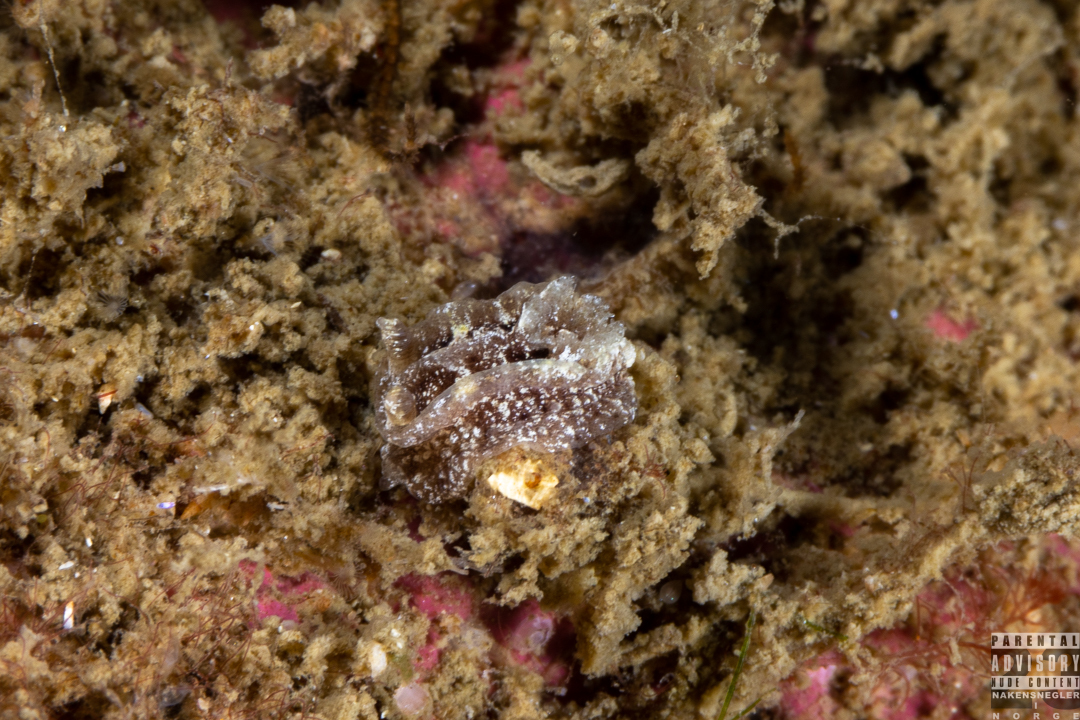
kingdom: Animalia
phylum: Mollusca
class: Gastropoda
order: Nudibranchia
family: Goniodorididae
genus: Pelagella
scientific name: Pelagella castanea
